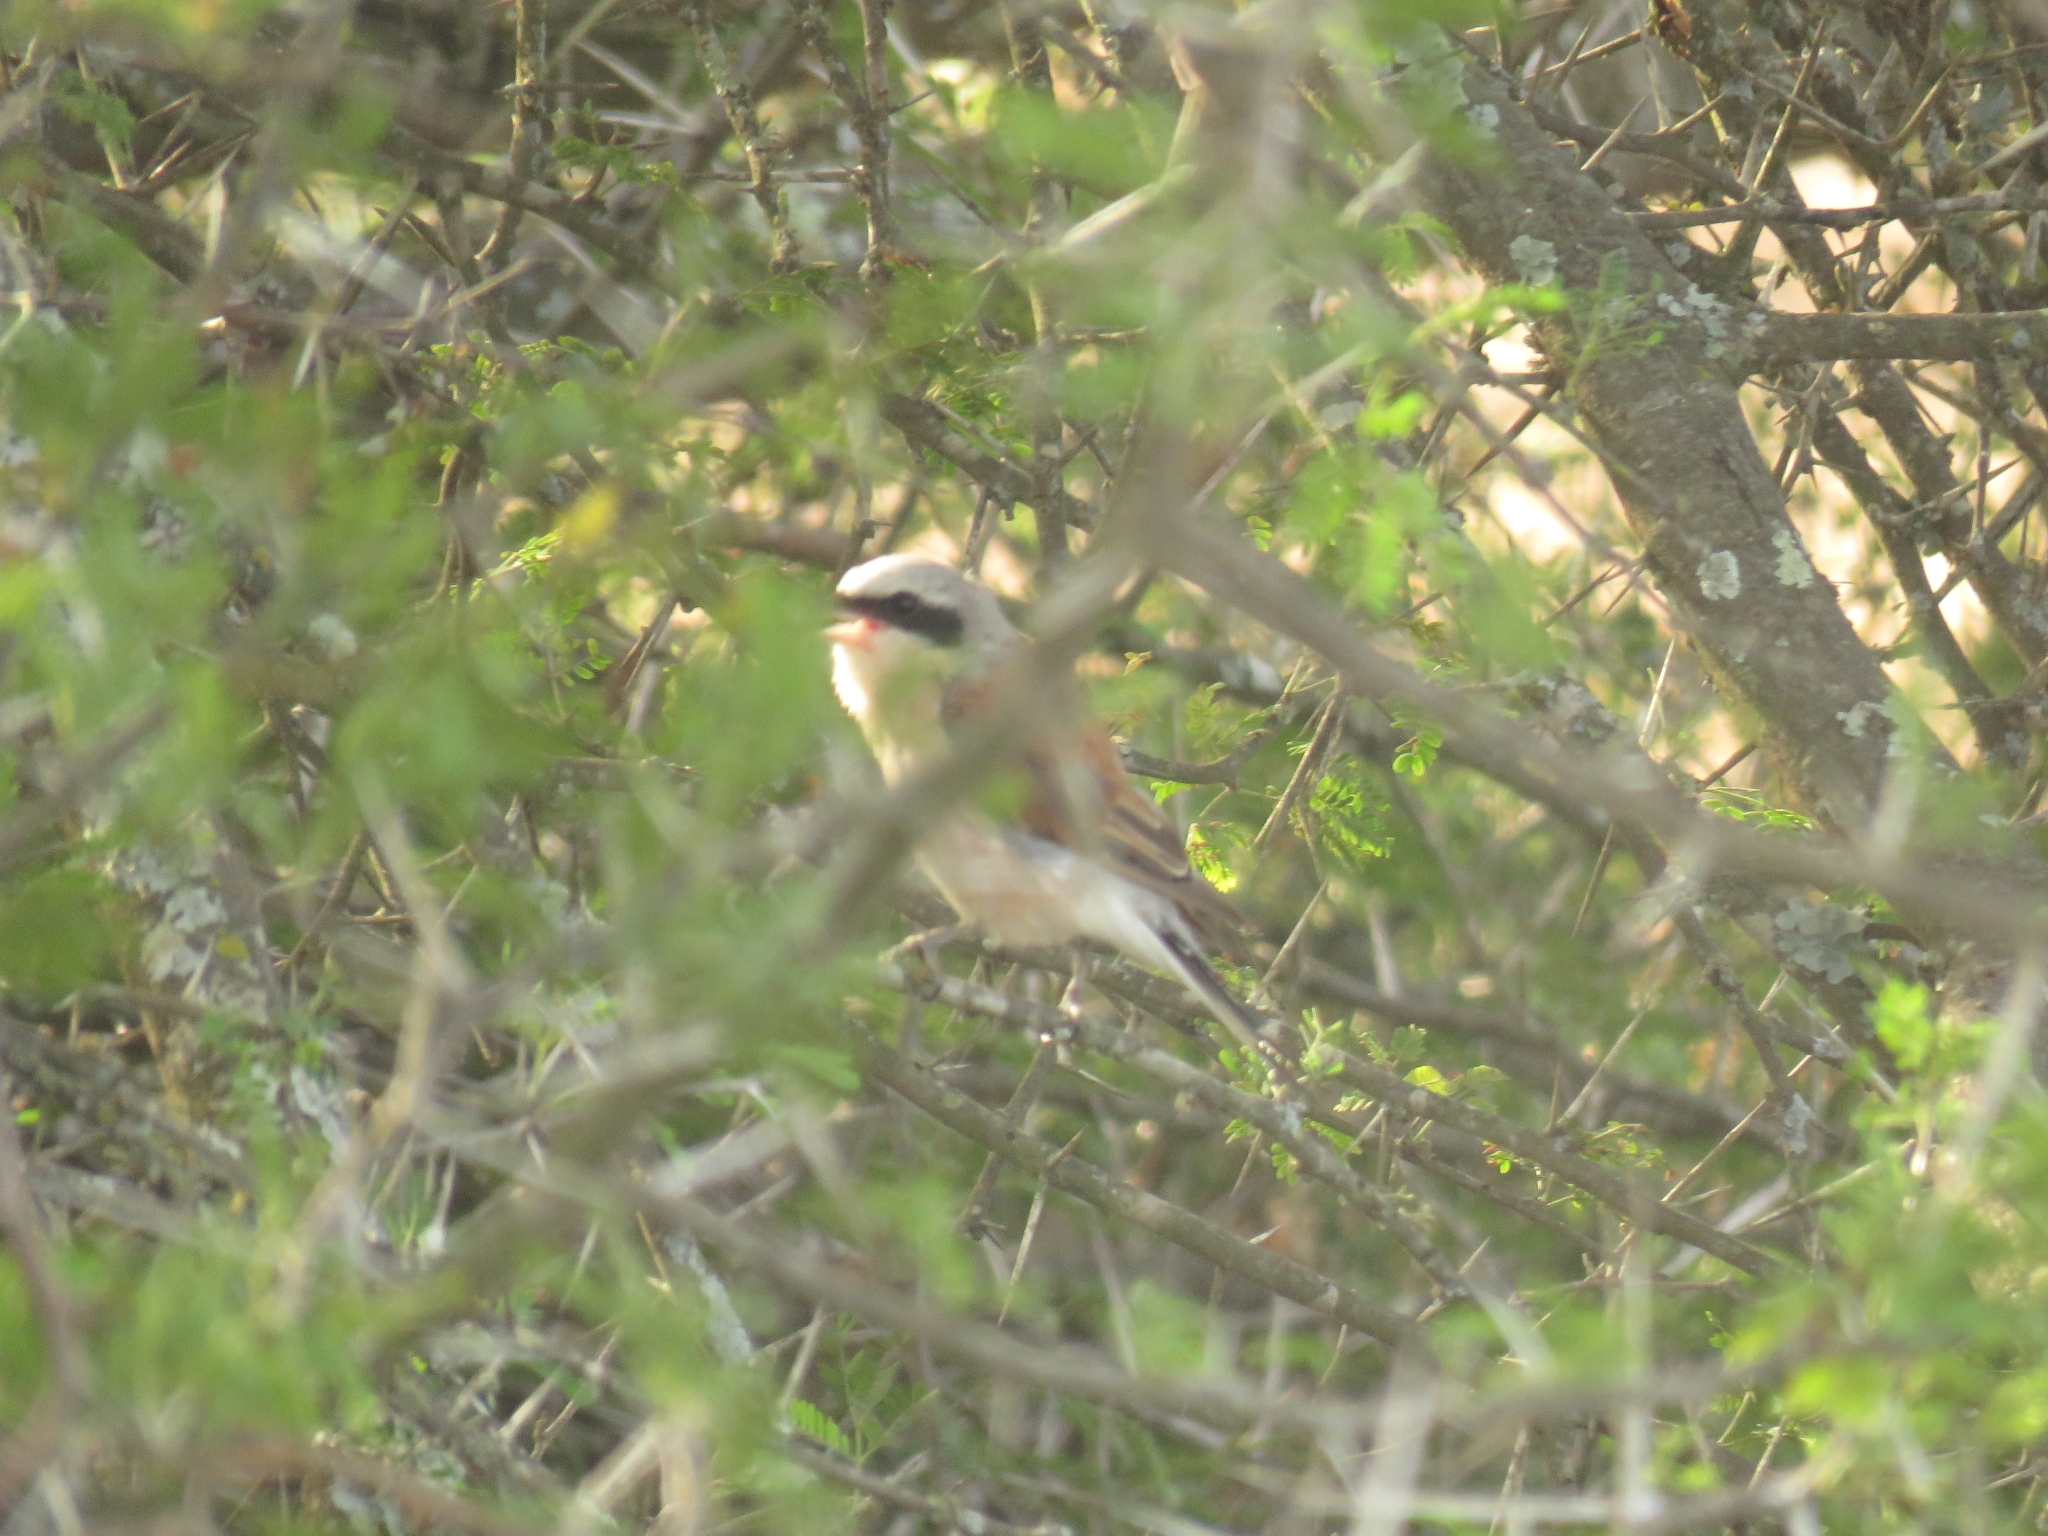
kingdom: Animalia
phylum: Chordata
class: Aves
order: Passeriformes
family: Laniidae
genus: Lanius
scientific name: Lanius collurio
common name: Red-backed shrike
